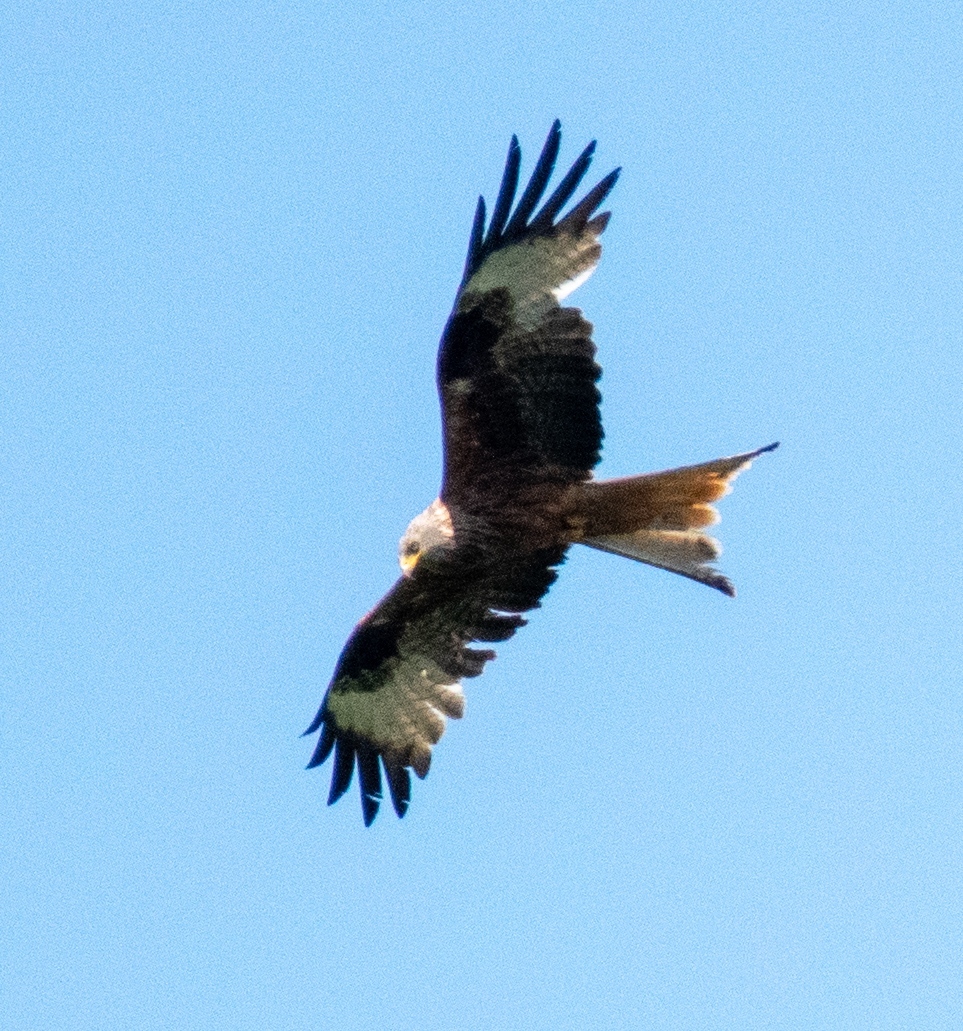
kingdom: Animalia
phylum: Chordata
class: Aves
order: Accipitriformes
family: Accipitridae
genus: Milvus
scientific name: Milvus milvus
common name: Red kite
